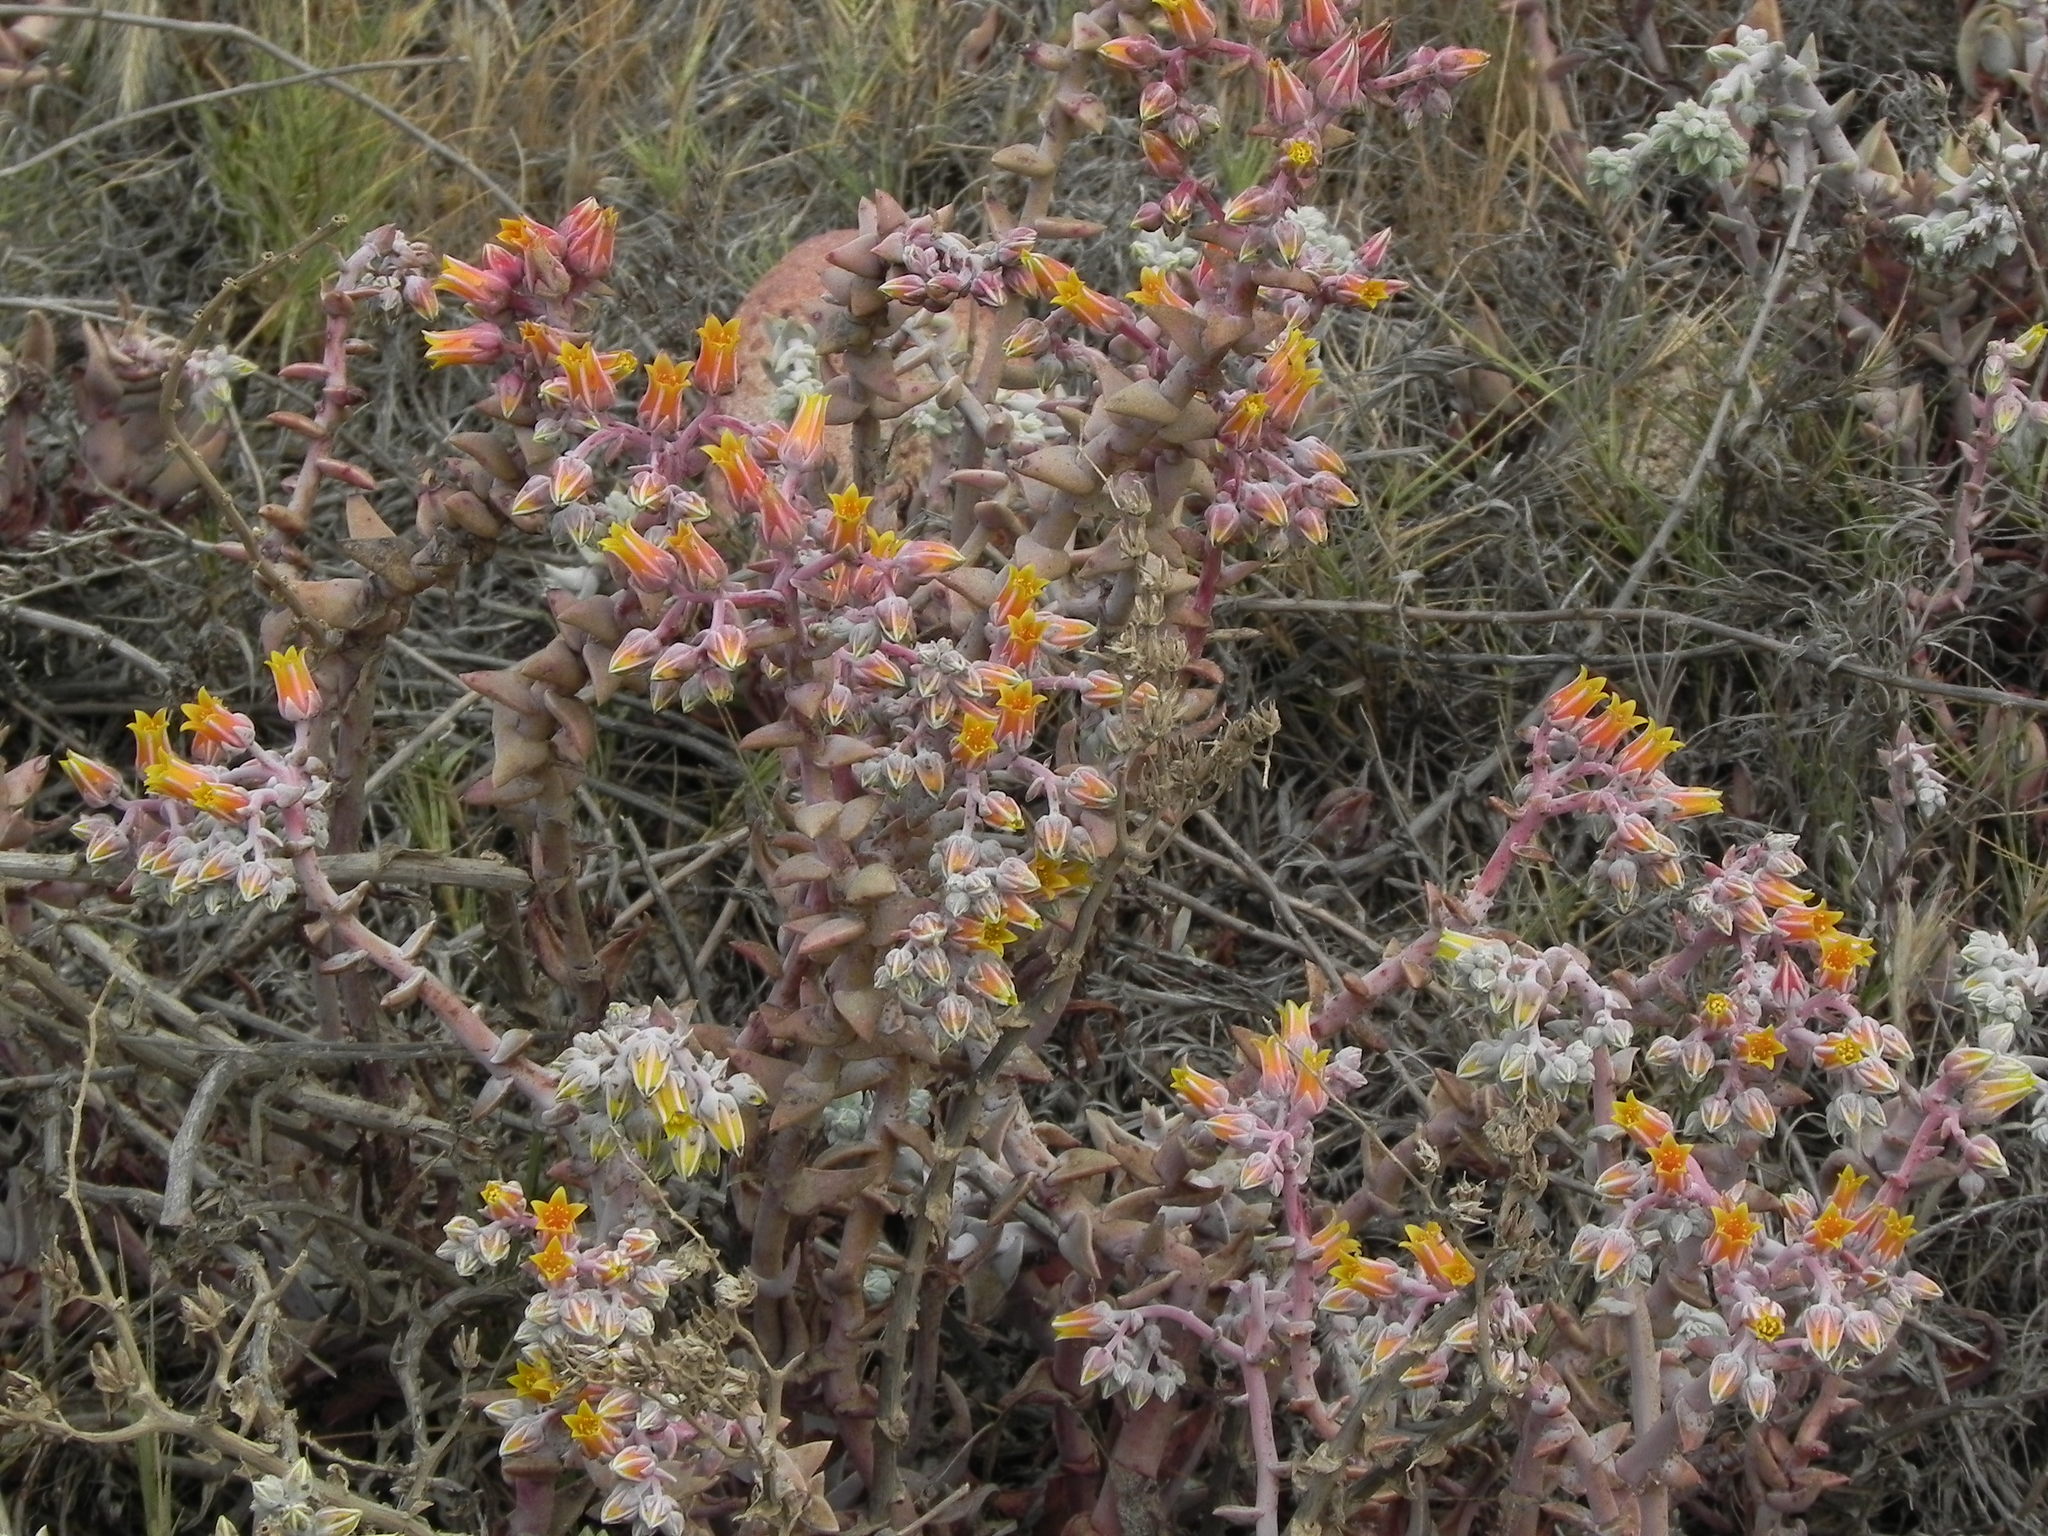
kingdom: Plantae
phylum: Tracheophyta
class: Magnoliopsida
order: Saxifragales
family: Crassulaceae
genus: Dudleya
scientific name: Dudleya lanceolata
